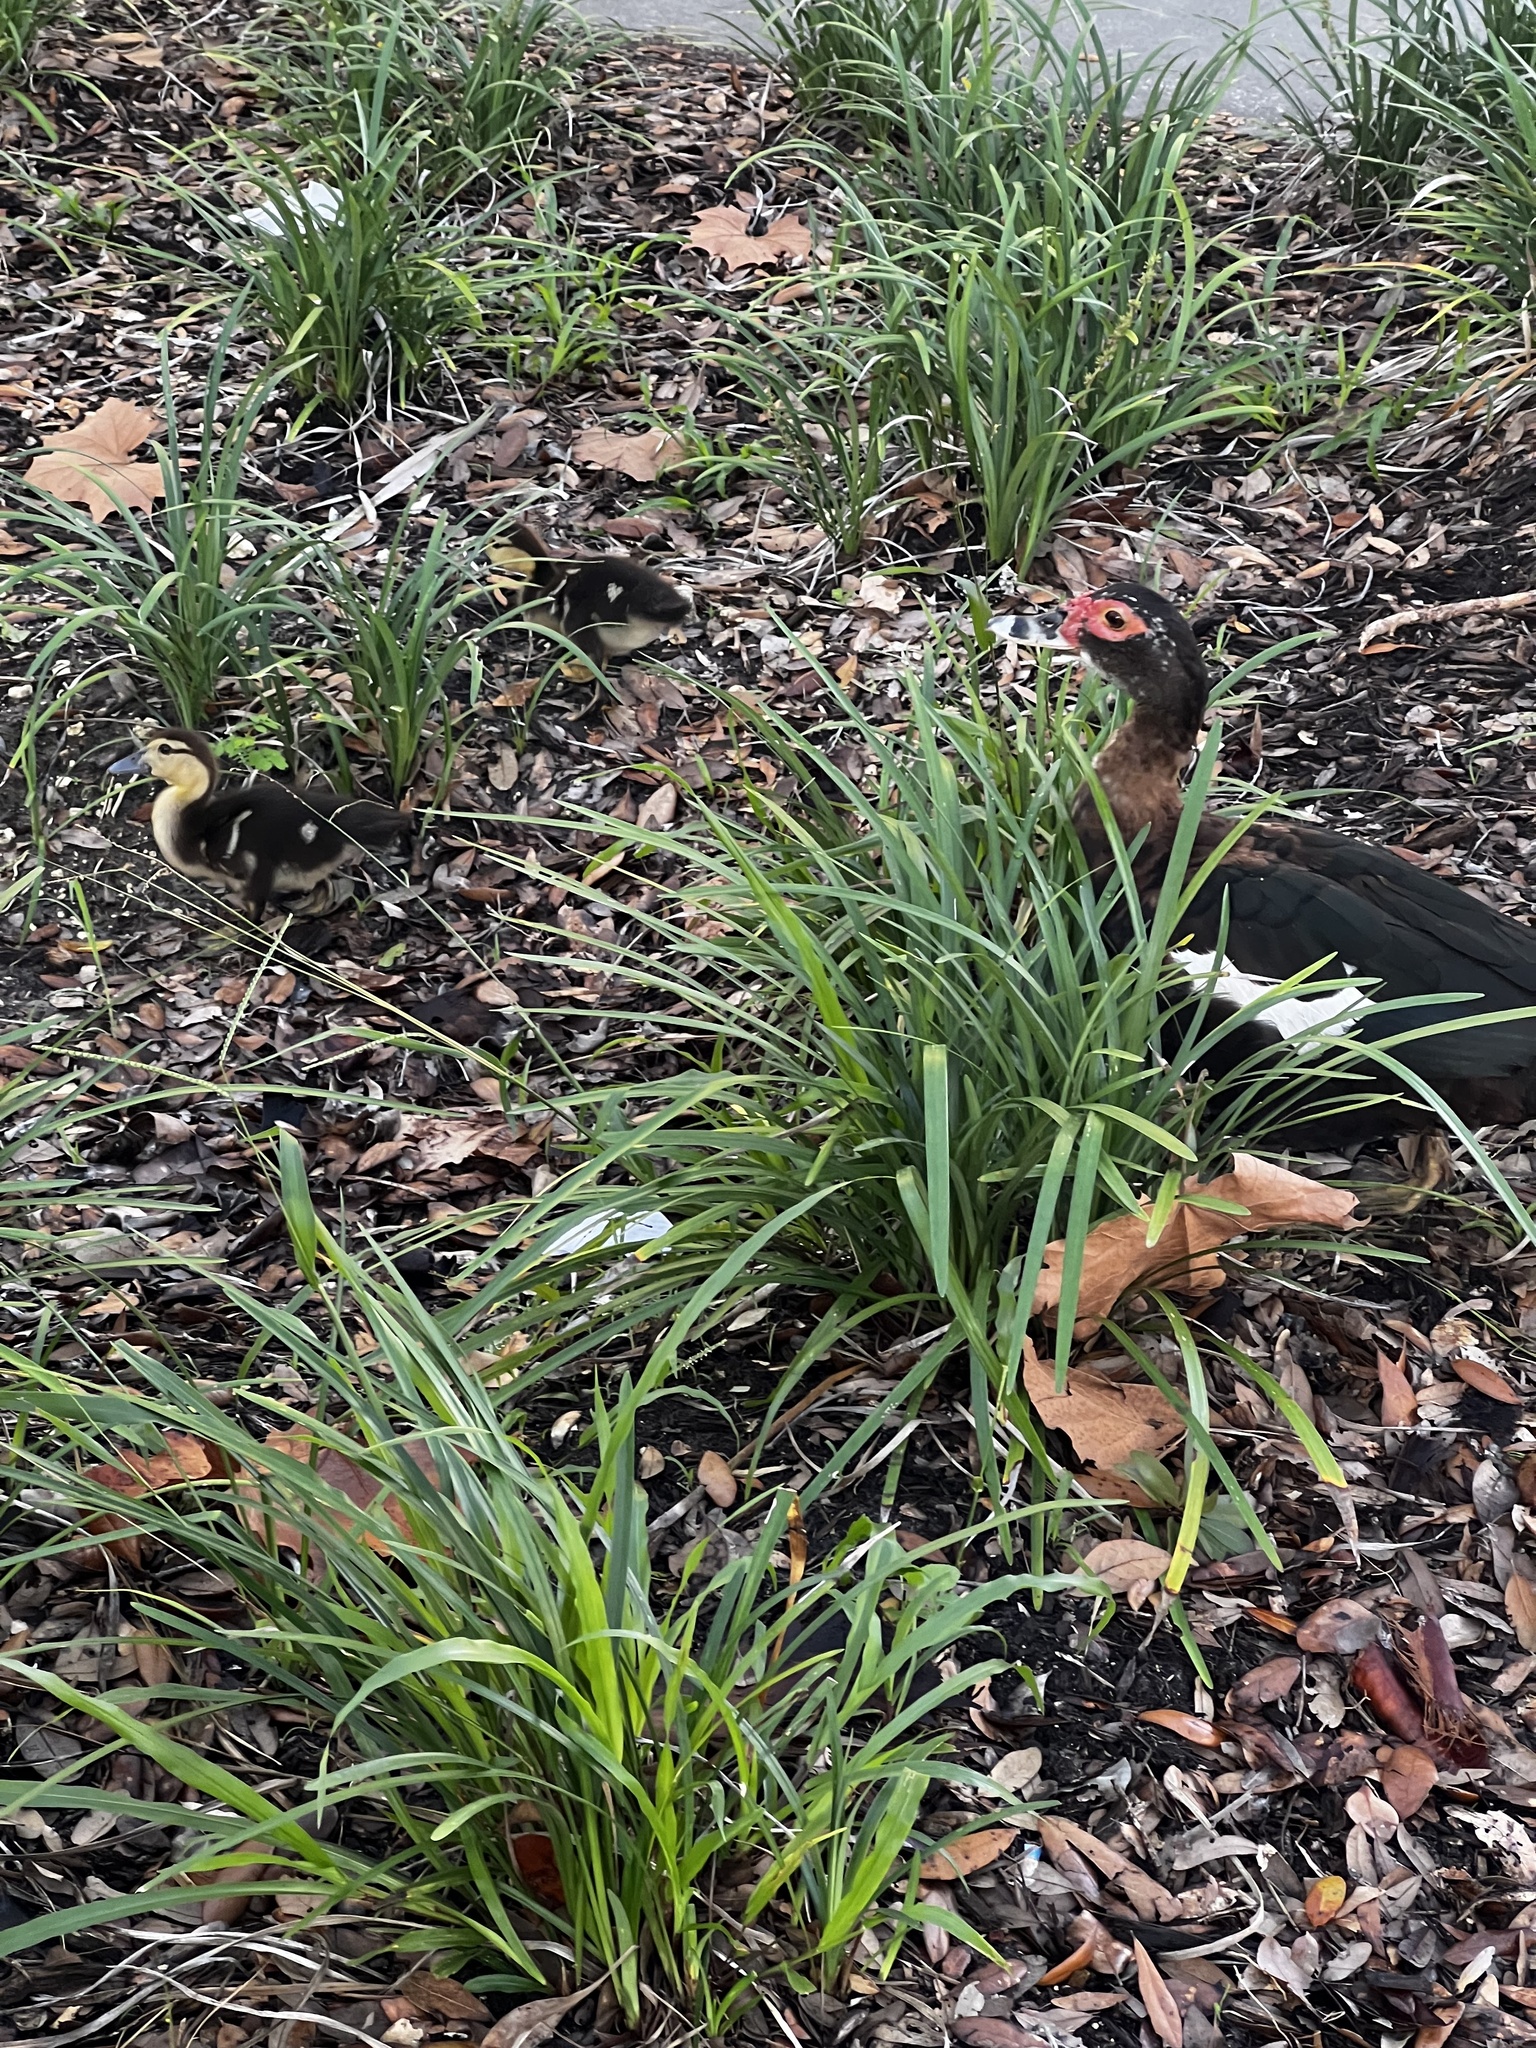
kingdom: Animalia
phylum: Chordata
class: Aves
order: Anseriformes
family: Anatidae
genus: Cairina
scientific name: Cairina moschata
